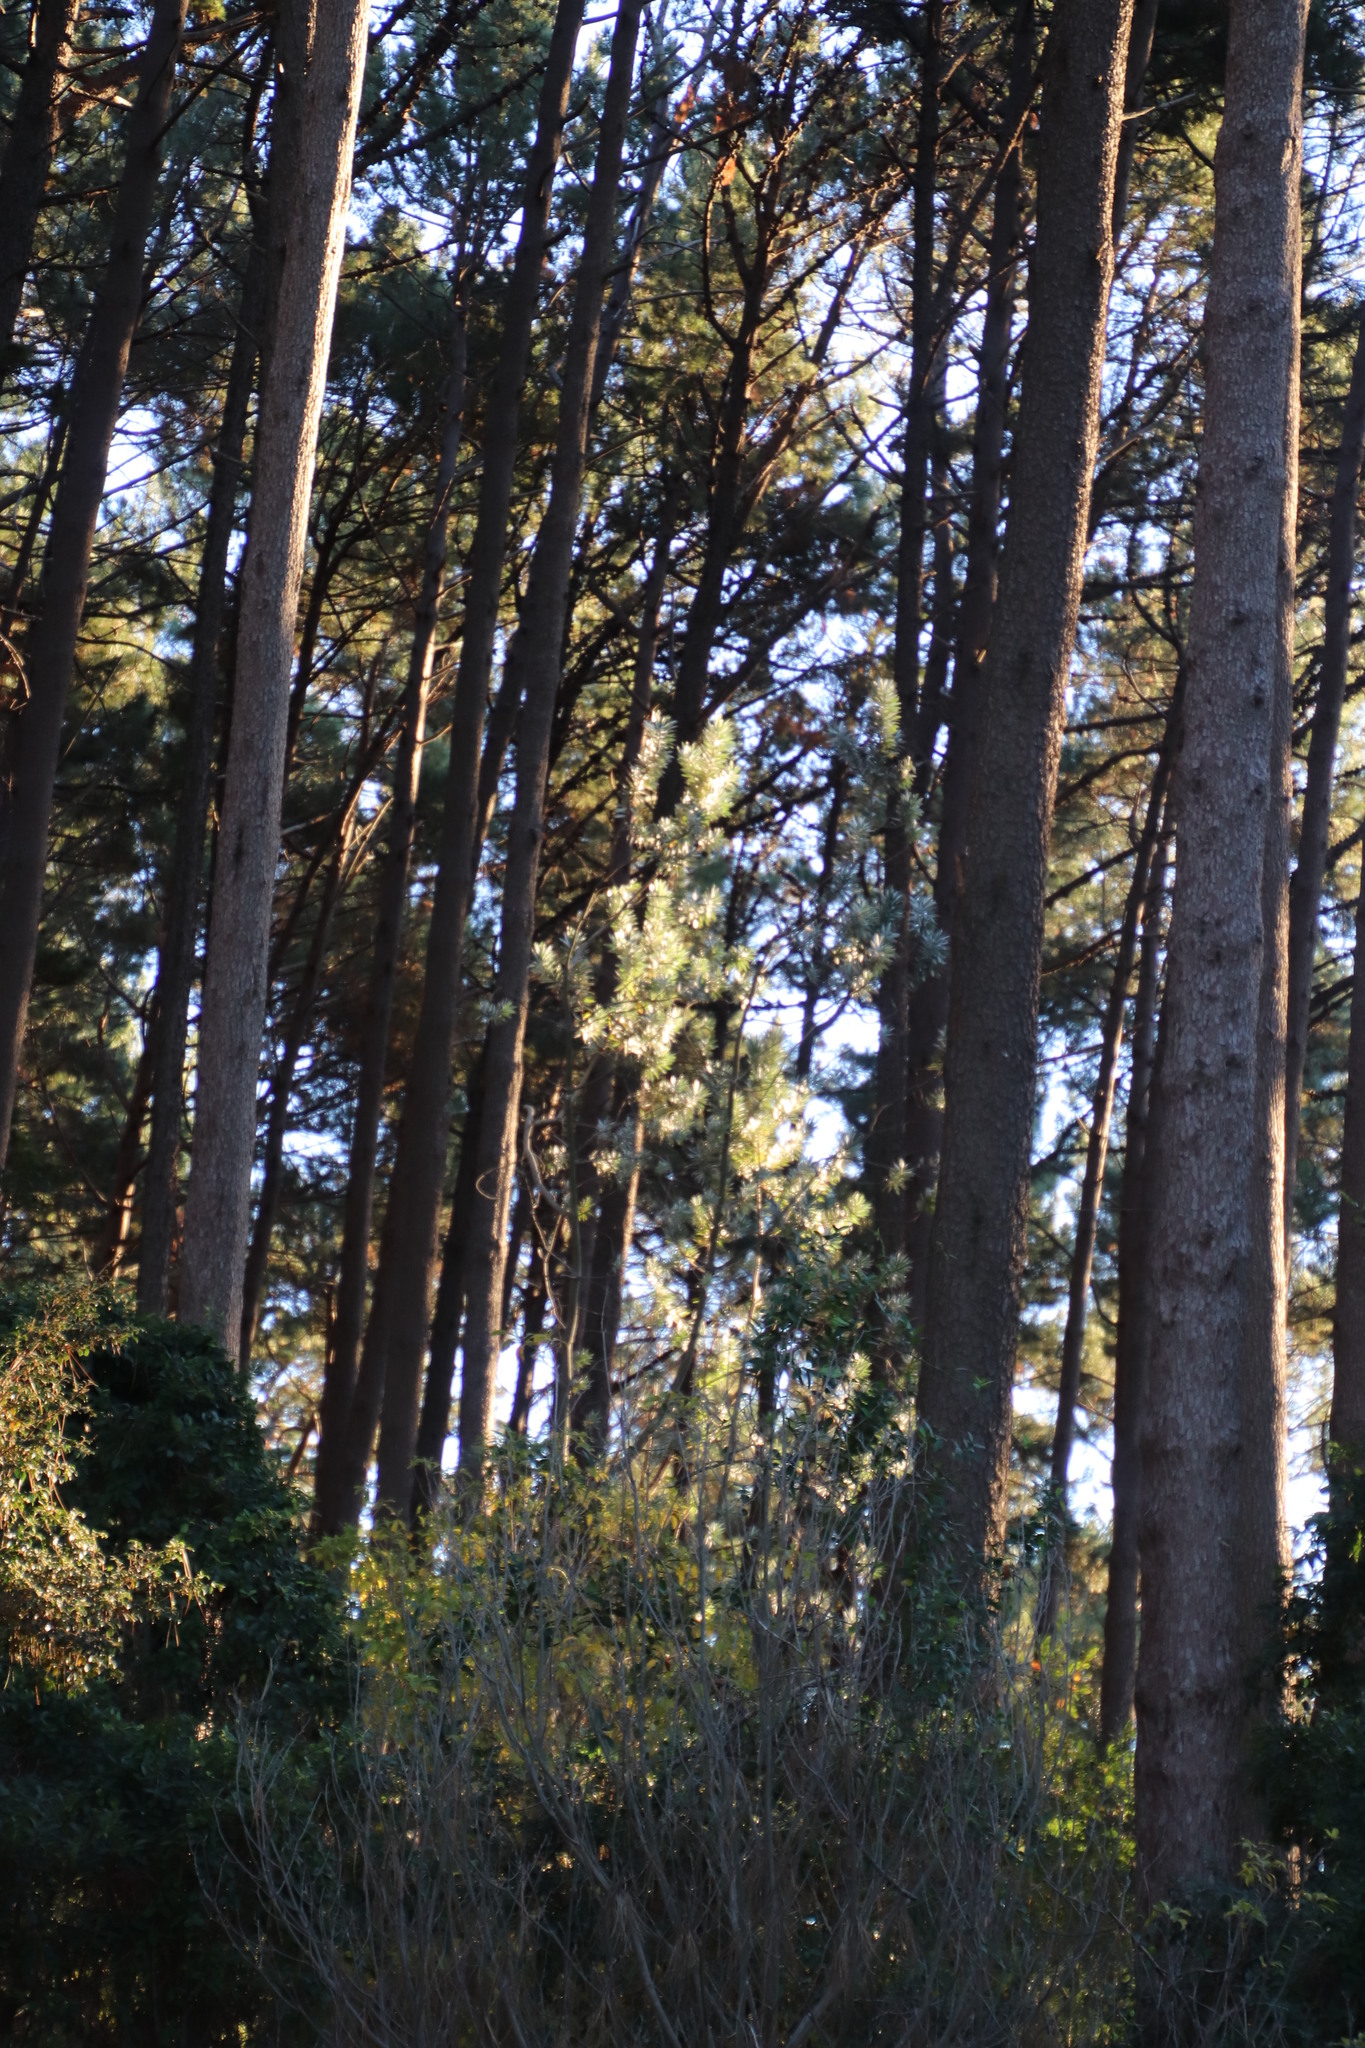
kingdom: Plantae
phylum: Tracheophyta
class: Magnoliopsida
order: Proteales
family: Proteaceae
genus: Leucadendron
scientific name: Leucadendron argenteum
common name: Cape silver tree
